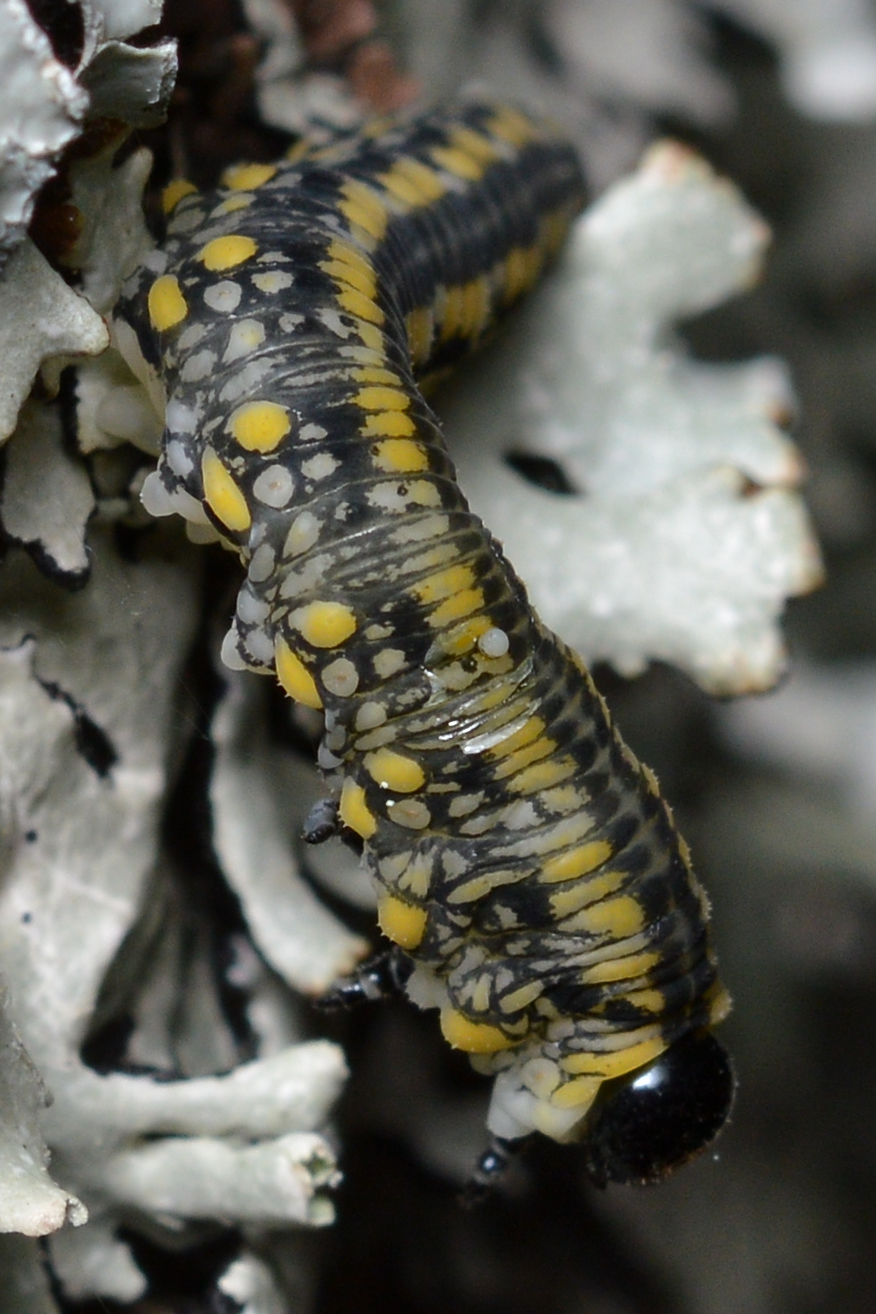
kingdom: Animalia
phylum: Arthropoda
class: Insecta
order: Hymenoptera
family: Diprionidae
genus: Diprion
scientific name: Diprion similis
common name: Pine sawfly
